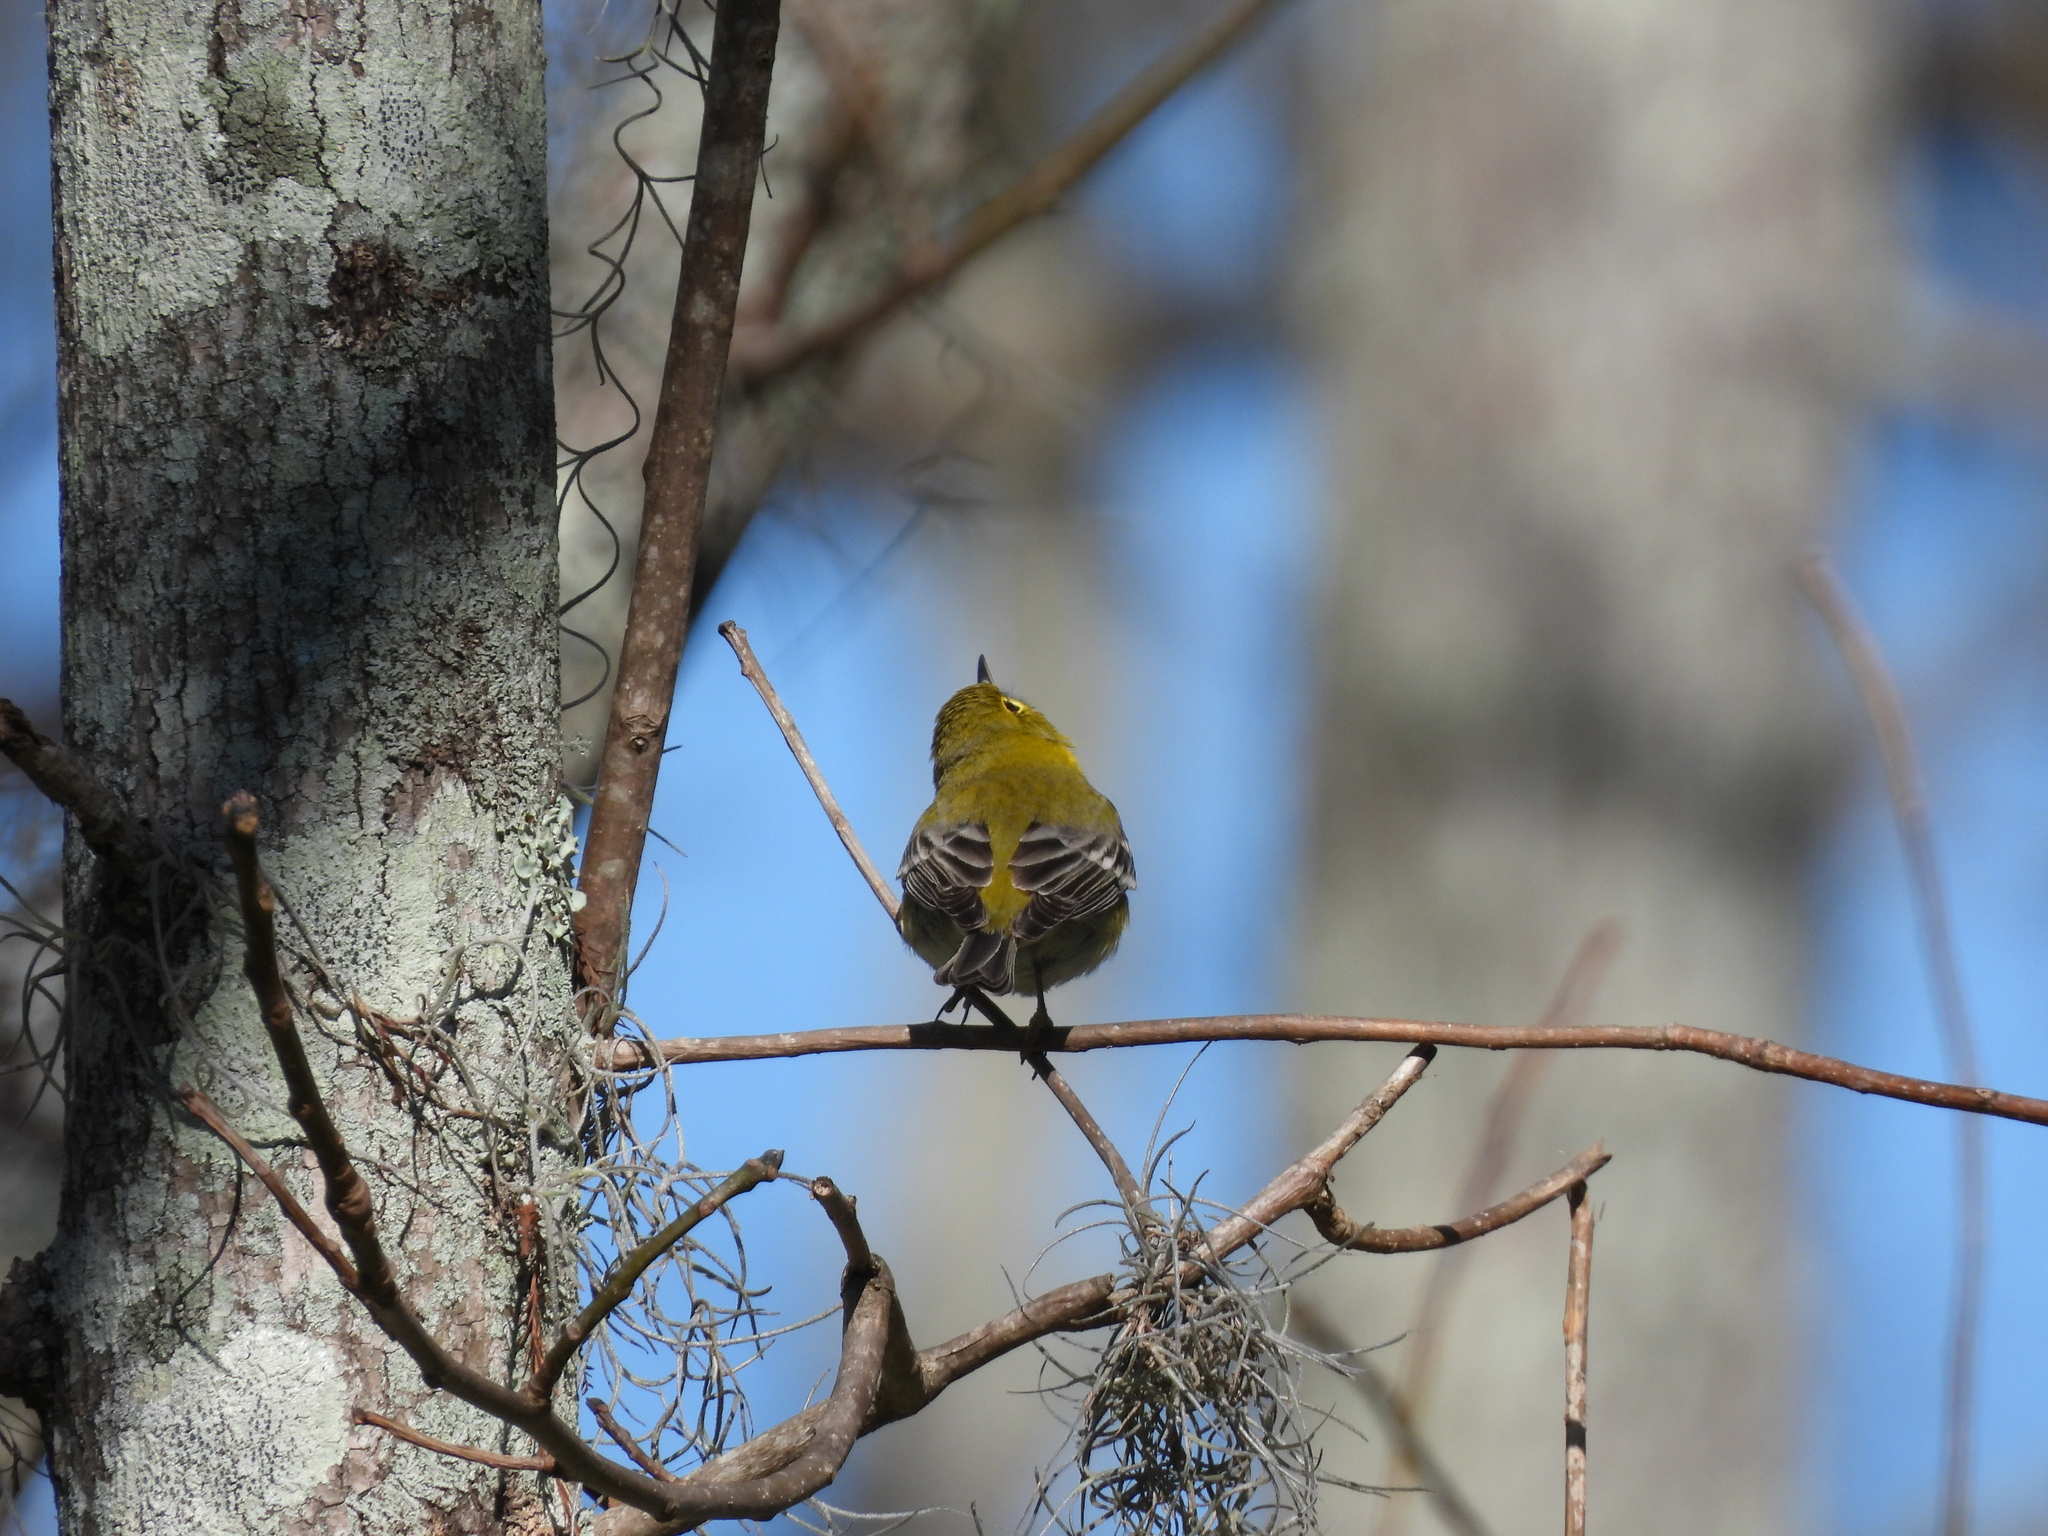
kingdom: Animalia
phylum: Chordata
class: Aves
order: Passeriformes
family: Parulidae
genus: Setophaga
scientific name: Setophaga pinus
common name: Pine warbler
